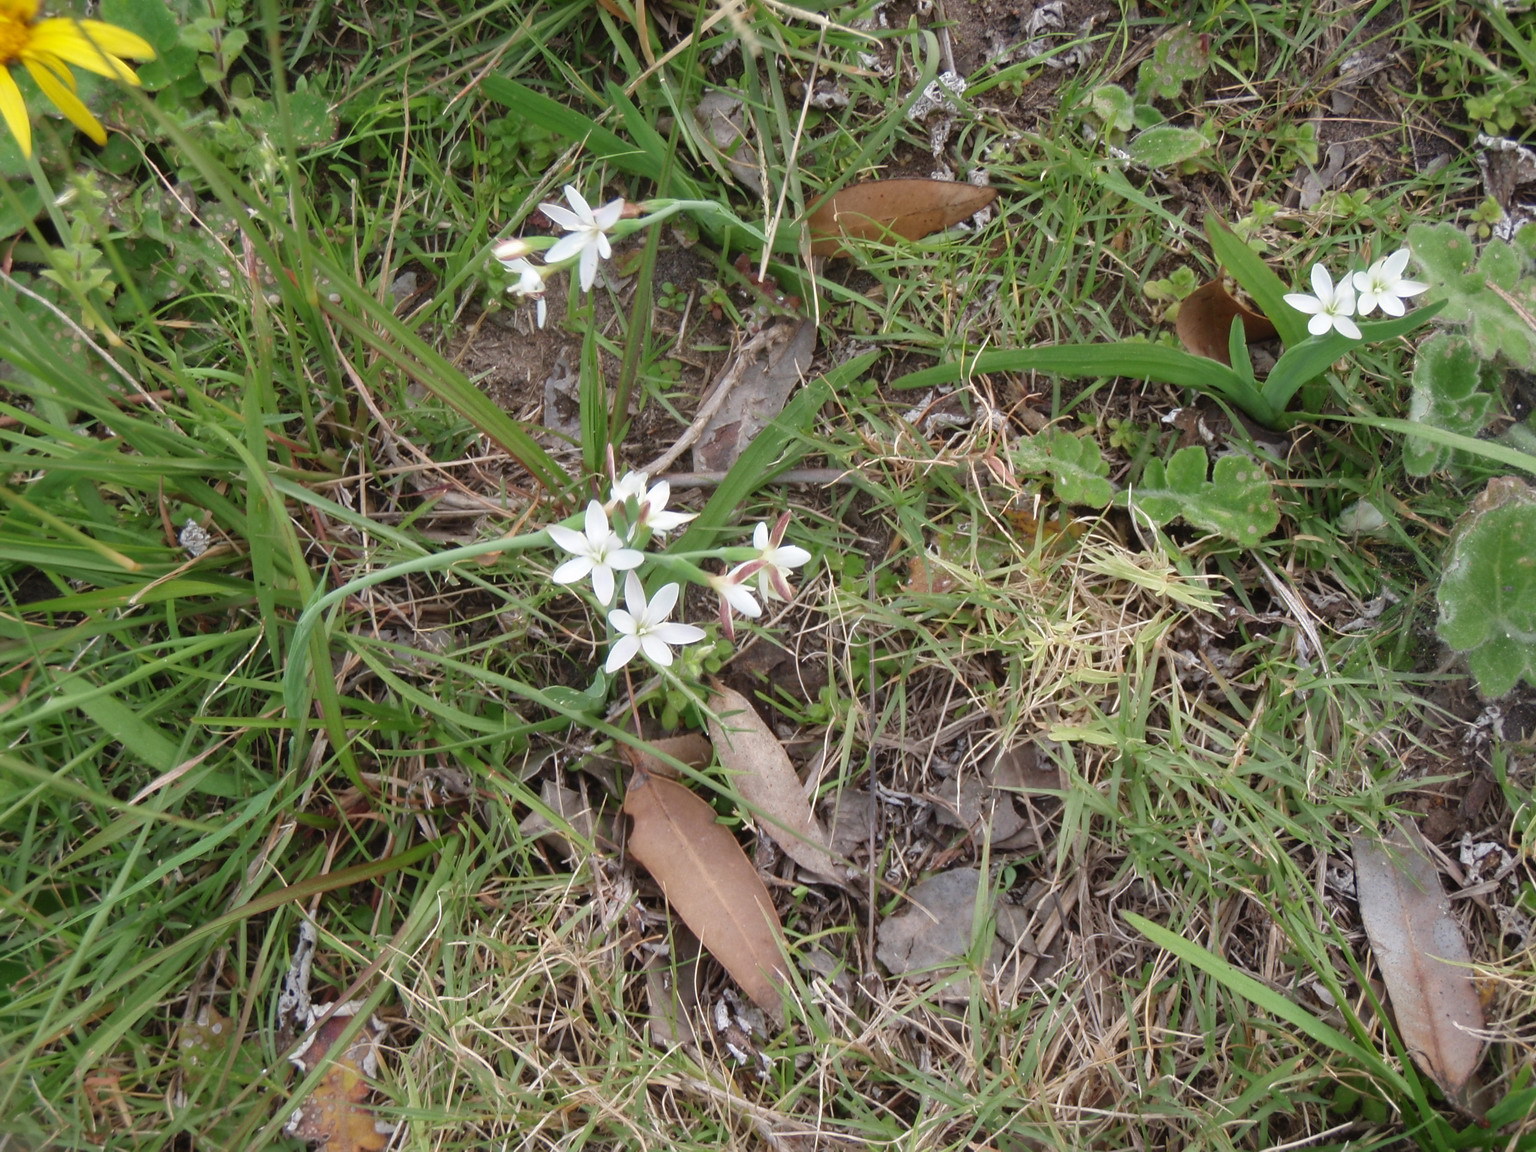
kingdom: Plantae
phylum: Tracheophyta
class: Liliopsida
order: Asparagales
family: Iridaceae
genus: Hesperantha
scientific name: Hesperantha falcata
